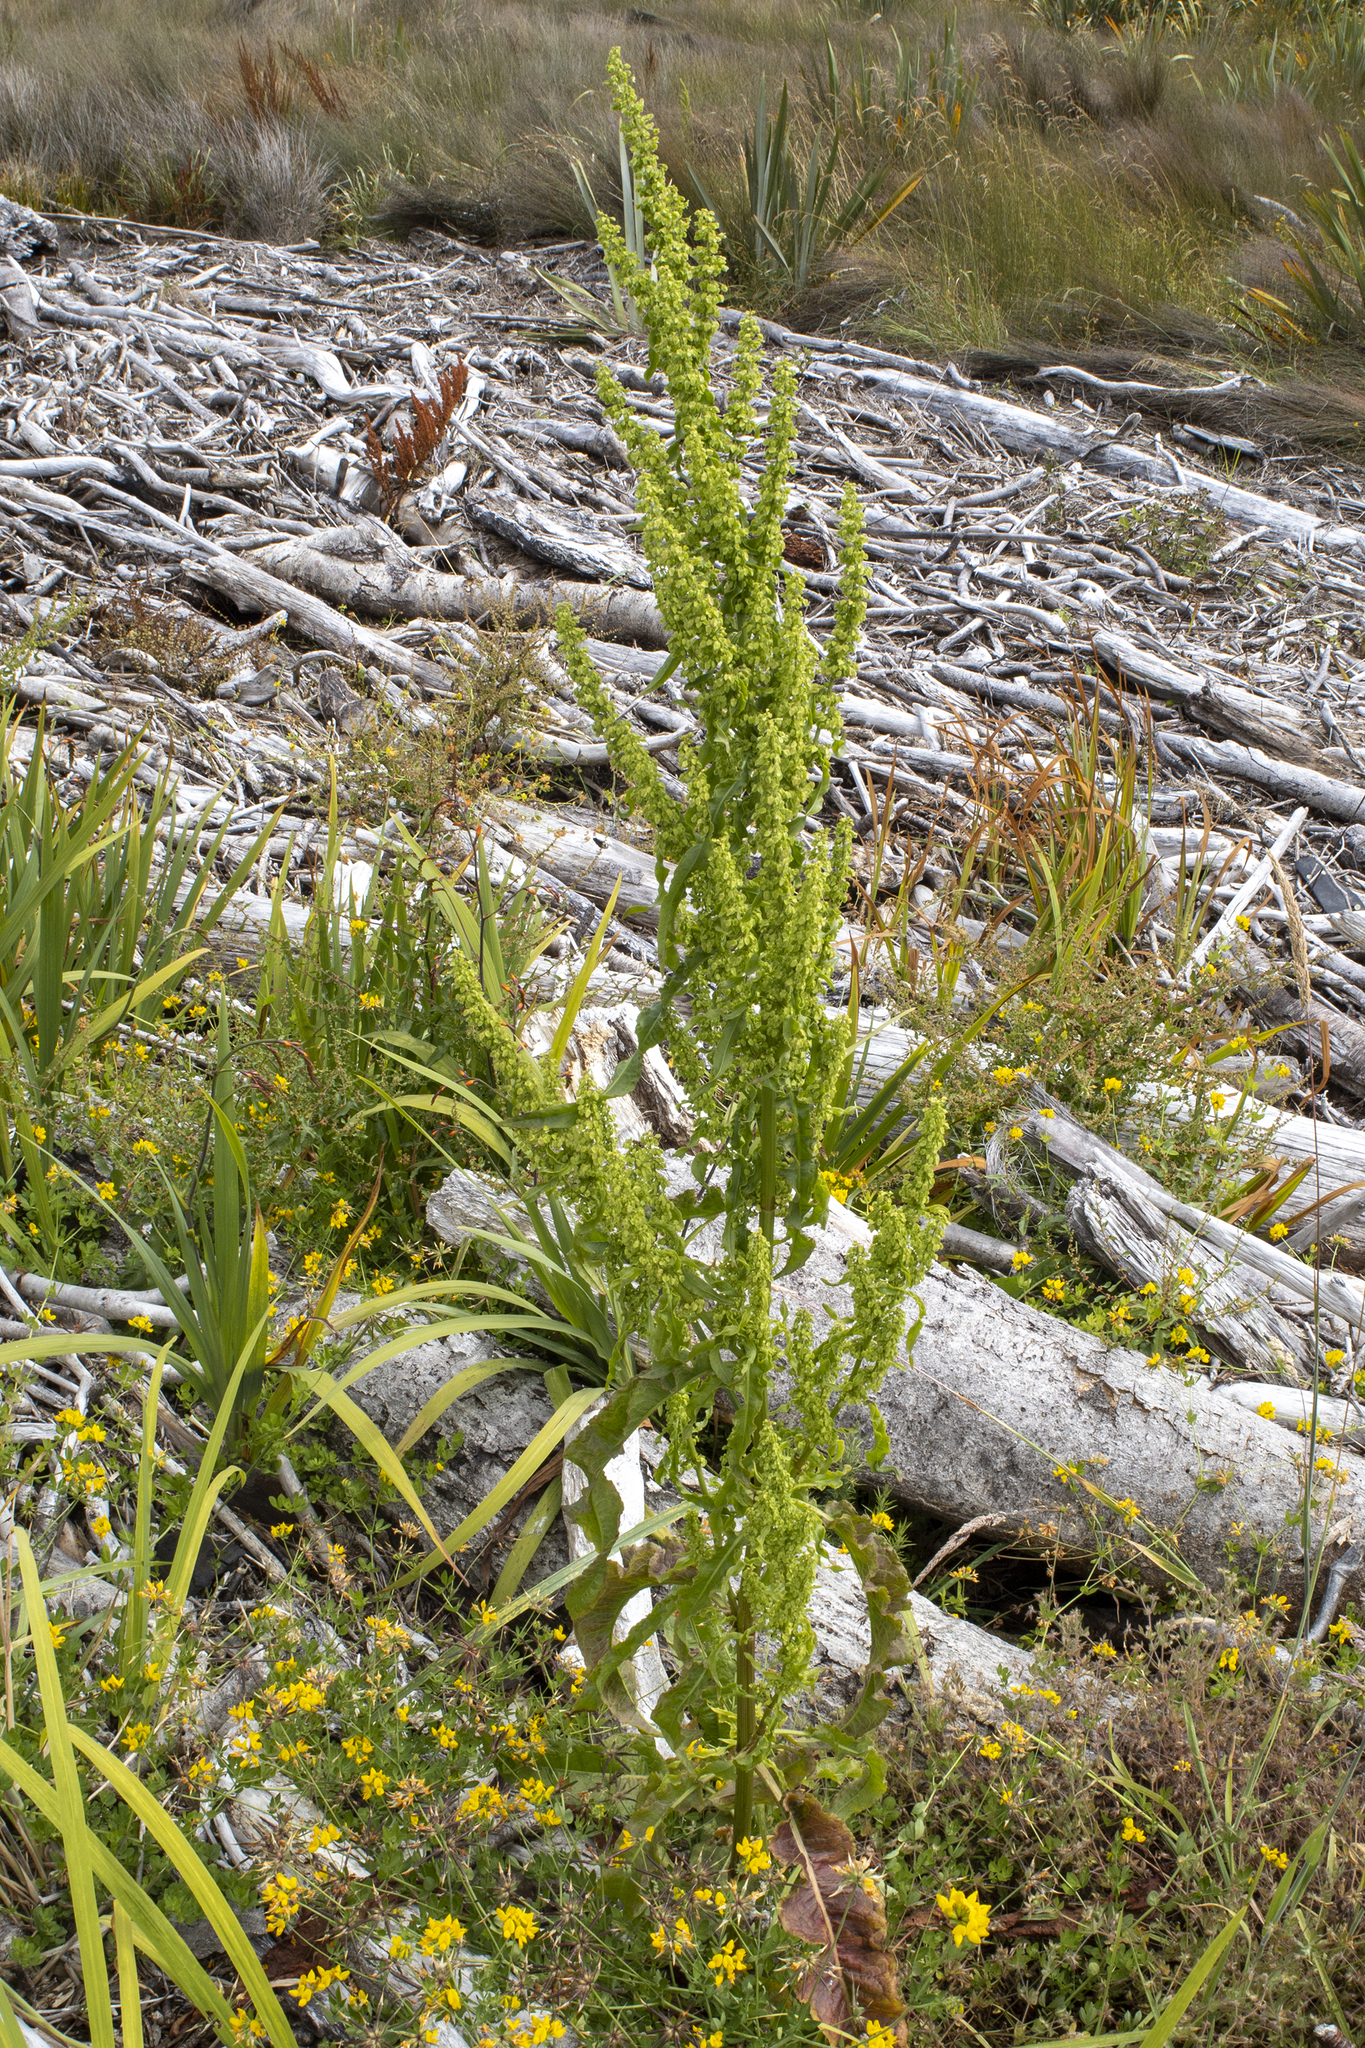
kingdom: Plantae
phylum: Tracheophyta
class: Magnoliopsida
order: Caryophyllales
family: Polygonaceae
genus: Rumex
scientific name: Rumex crispus
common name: Curled dock
